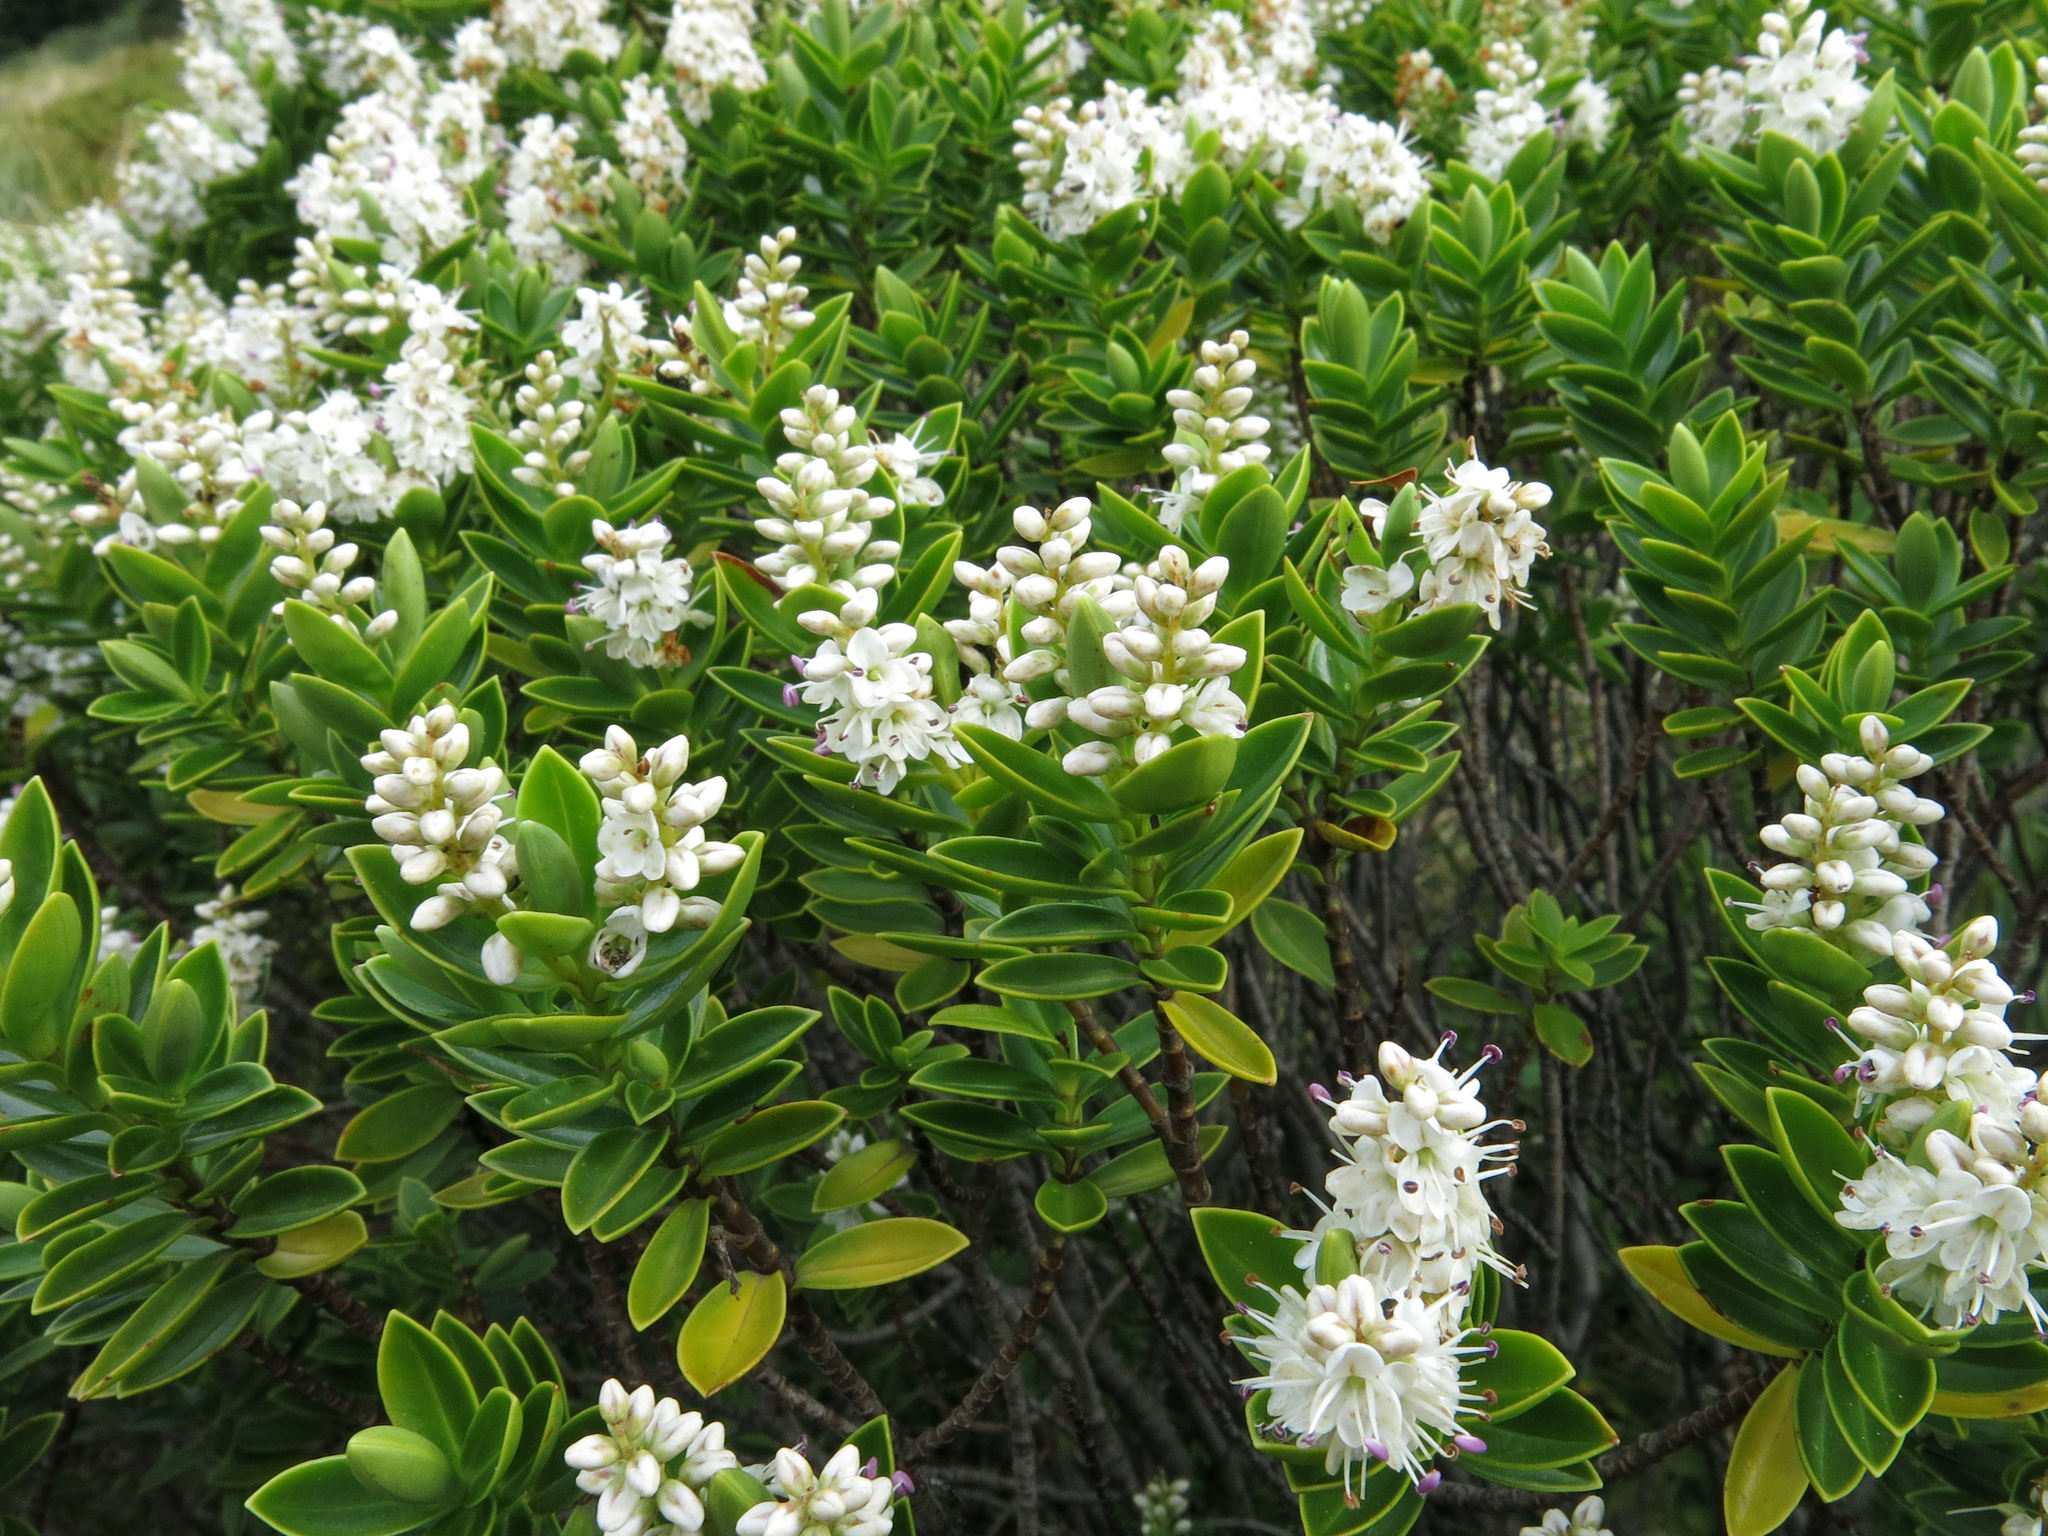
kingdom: Plantae
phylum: Tracheophyta
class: Magnoliopsida
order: Lamiales
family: Plantaginaceae
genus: Veronica
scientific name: Veronica rakaiensis
